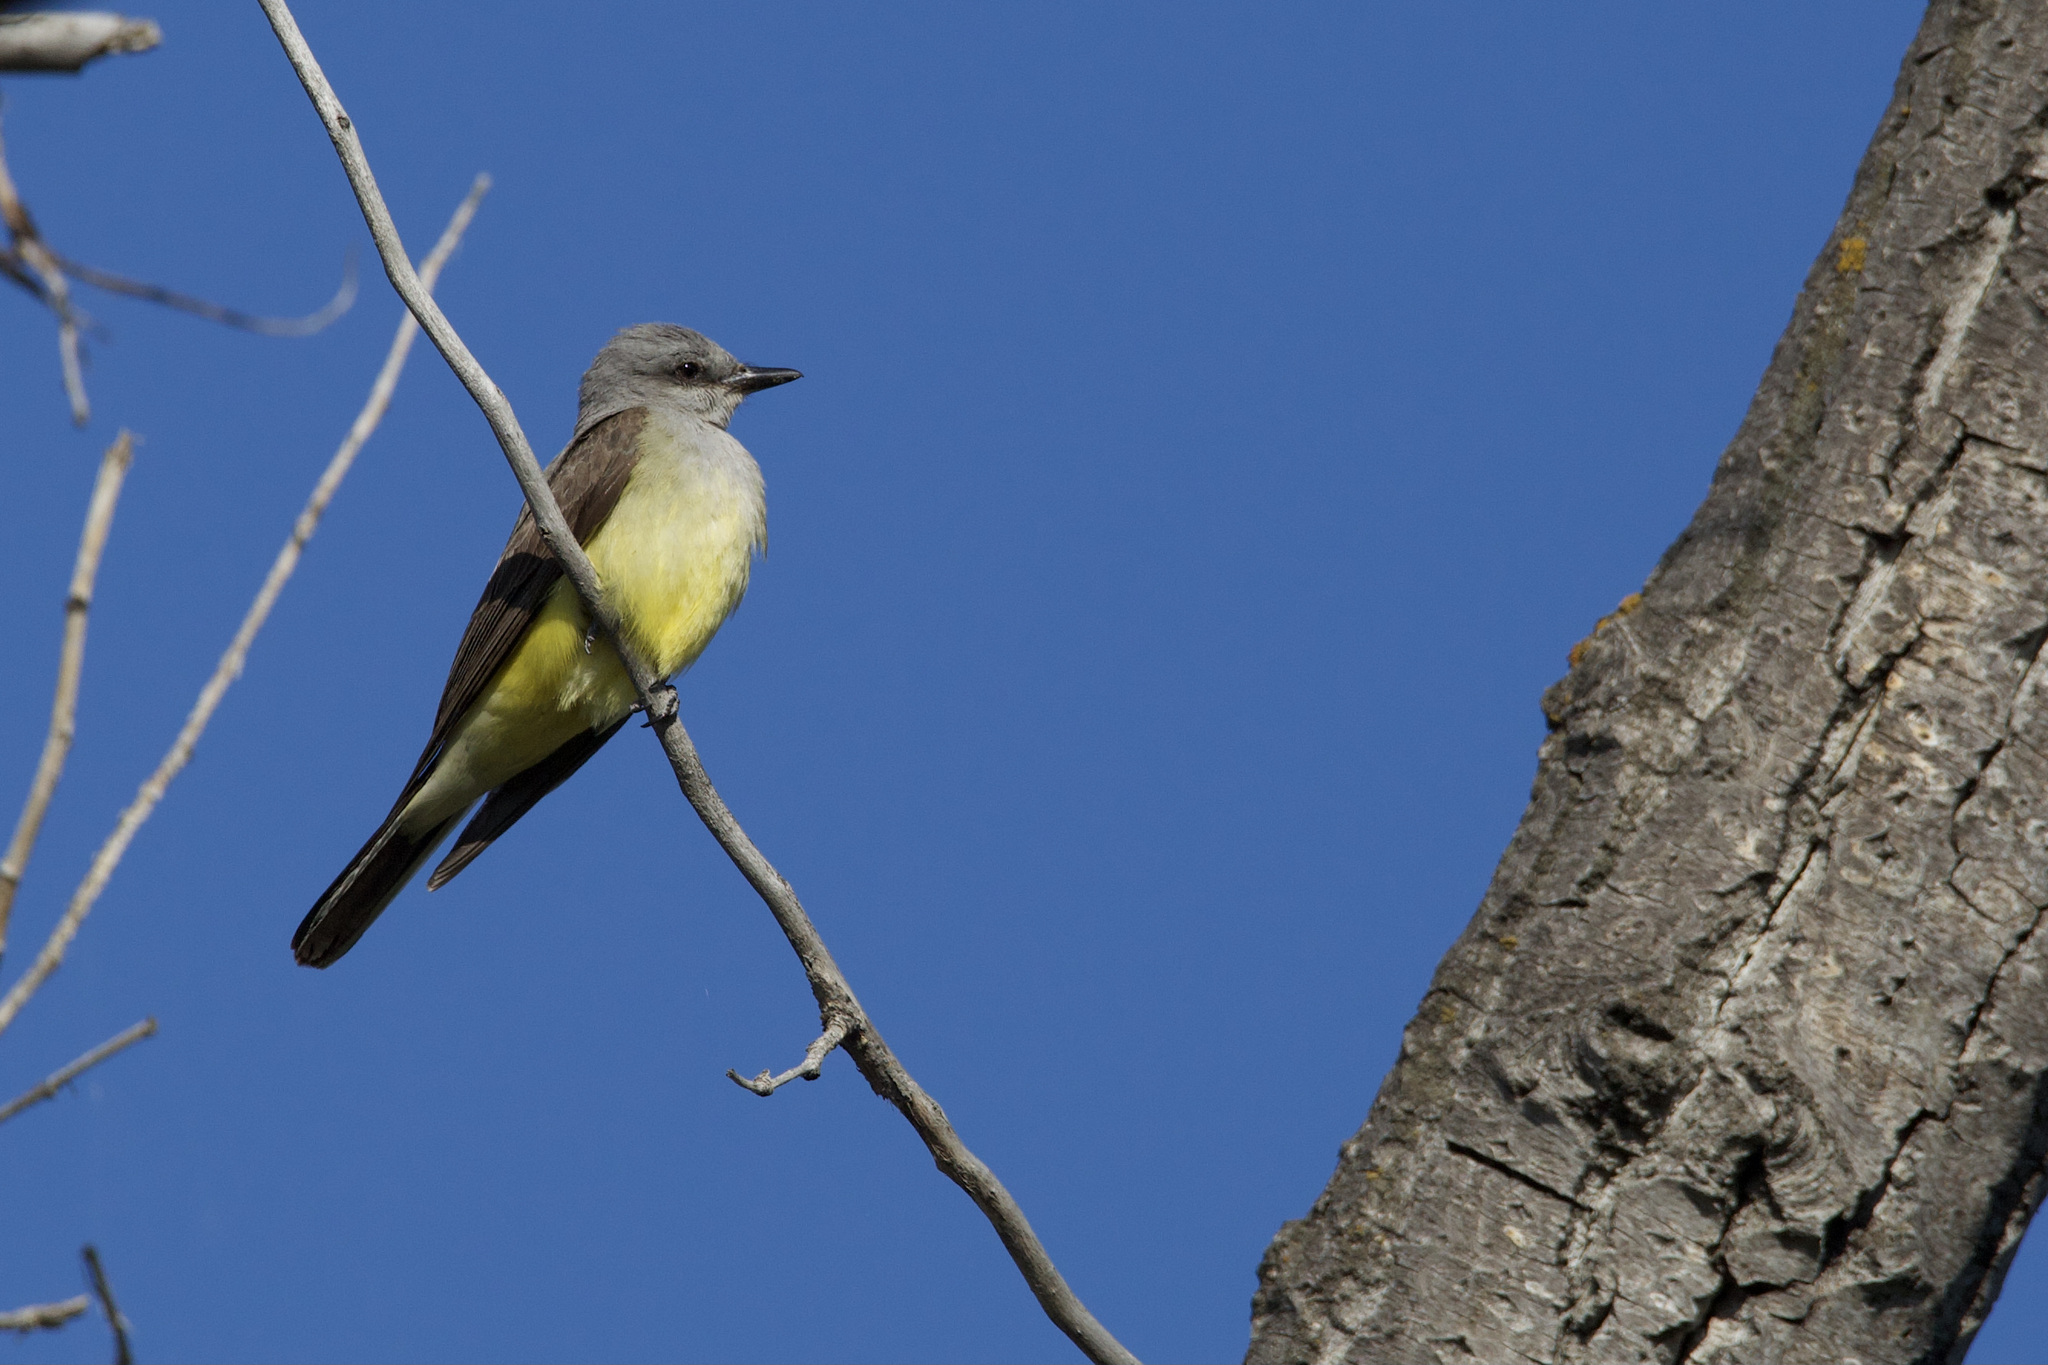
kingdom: Animalia
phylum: Chordata
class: Aves
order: Passeriformes
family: Tyrannidae
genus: Tyrannus
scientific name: Tyrannus verticalis
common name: Western kingbird
